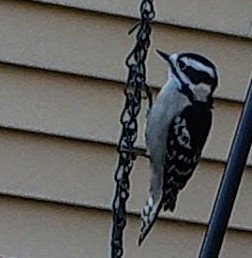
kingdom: Animalia
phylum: Chordata
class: Aves
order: Piciformes
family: Picidae
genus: Dryobates
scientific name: Dryobates pubescens
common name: Downy woodpecker
